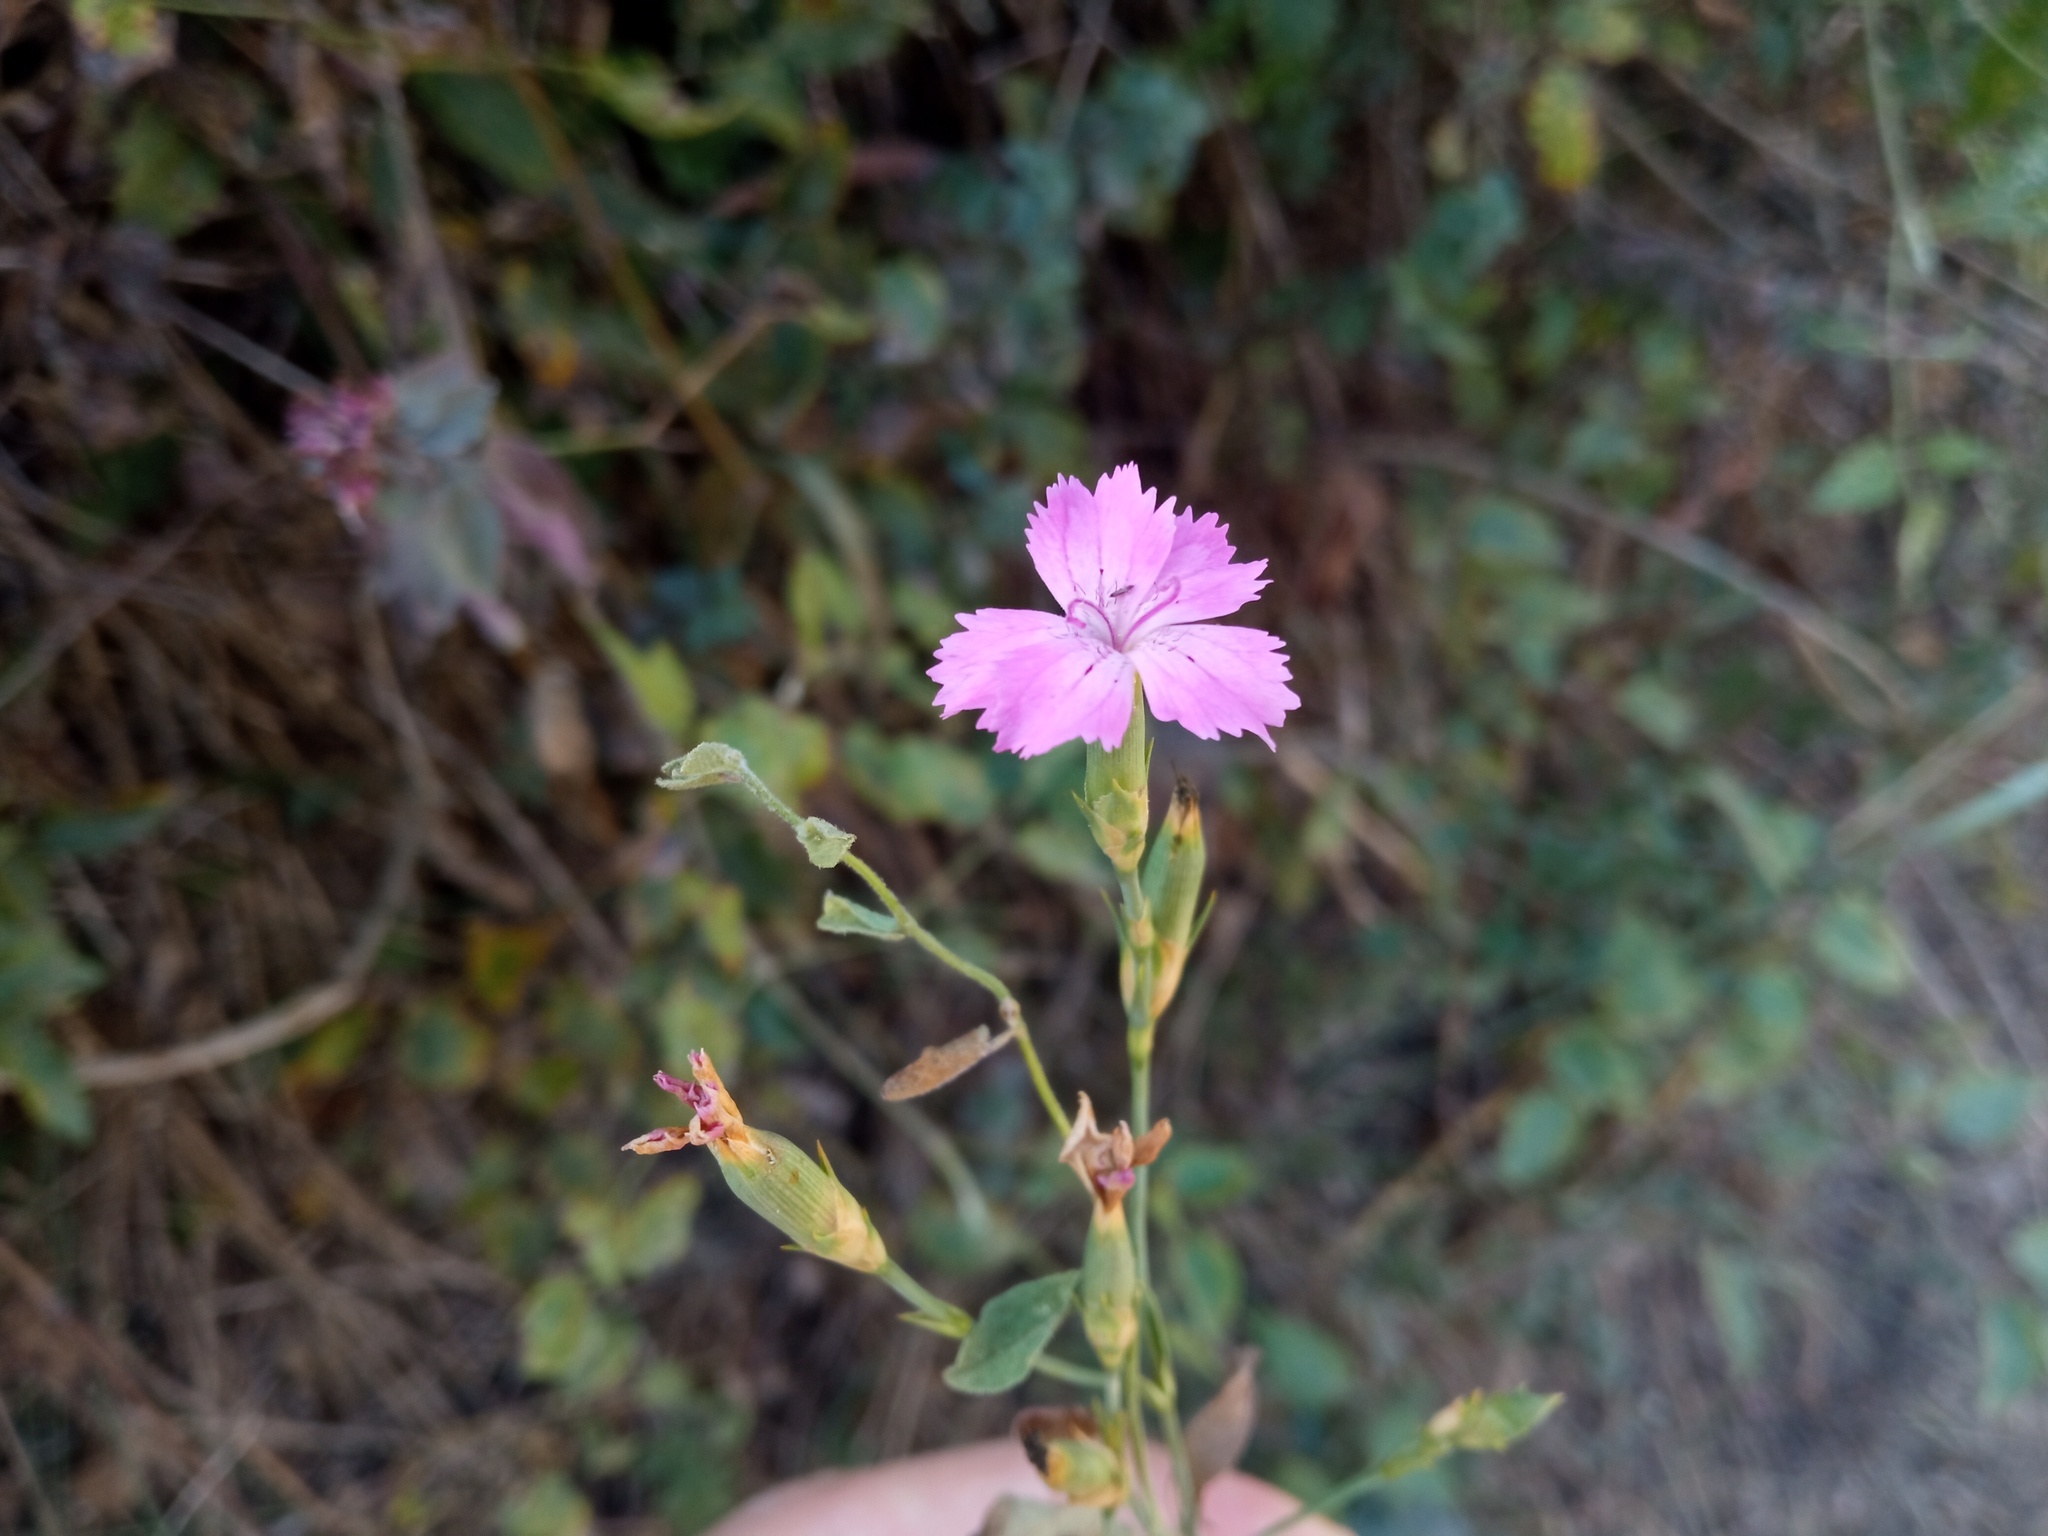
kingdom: Plantae
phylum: Tracheophyta
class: Magnoliopsida
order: Caryophyllales
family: Caryophyllaceae
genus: Dianthus
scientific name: Dianthus seguieri
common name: Ragged pink
